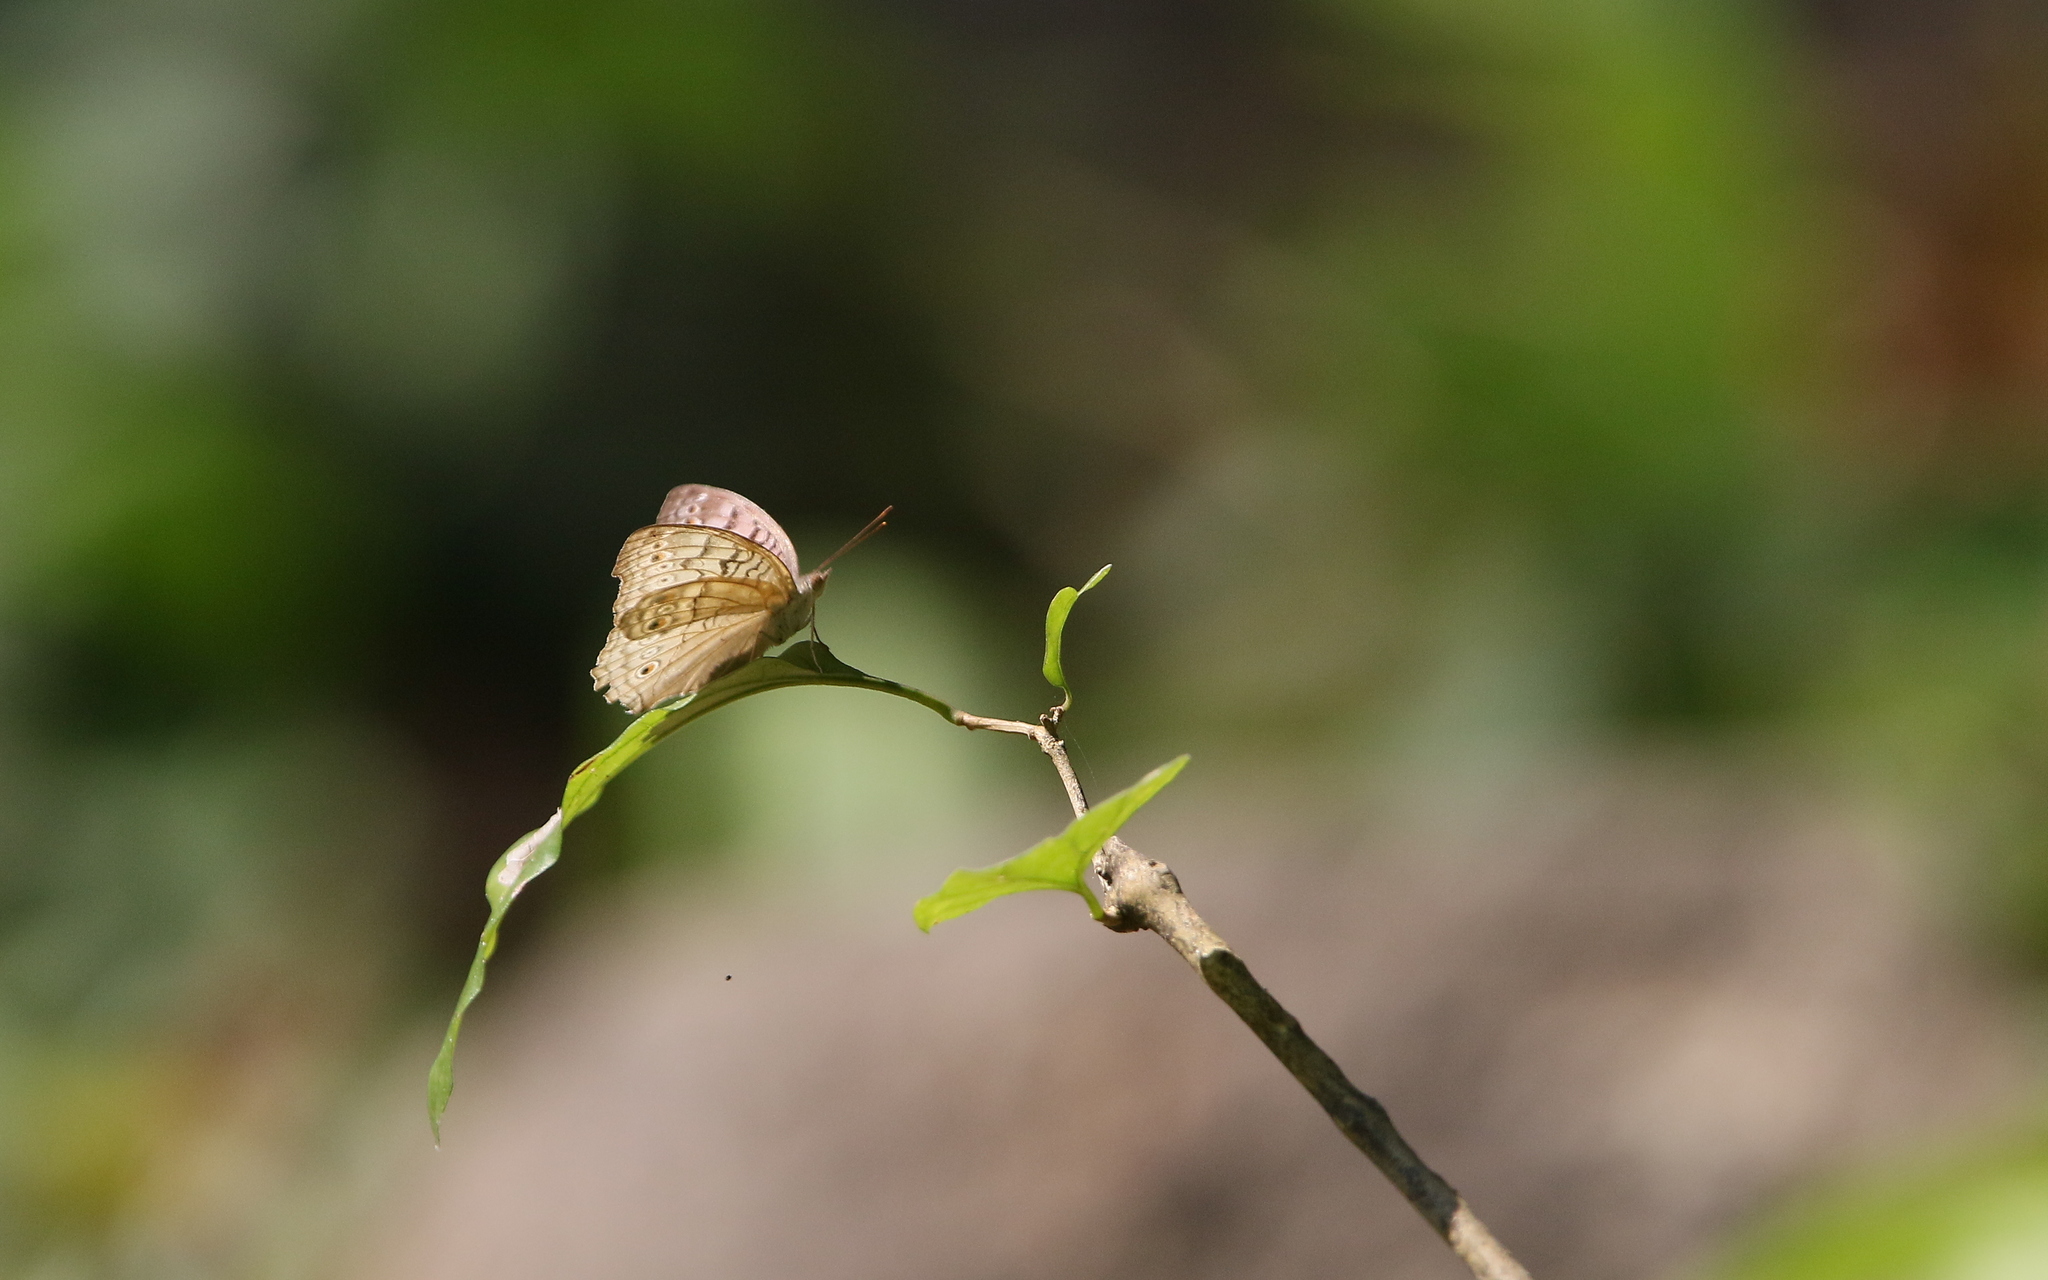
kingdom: Animalia
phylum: Arthropoda
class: Insecta
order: Lepidoptera
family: Nymphalidae
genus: Junonia
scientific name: Junonia atlites
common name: Grey pansy
